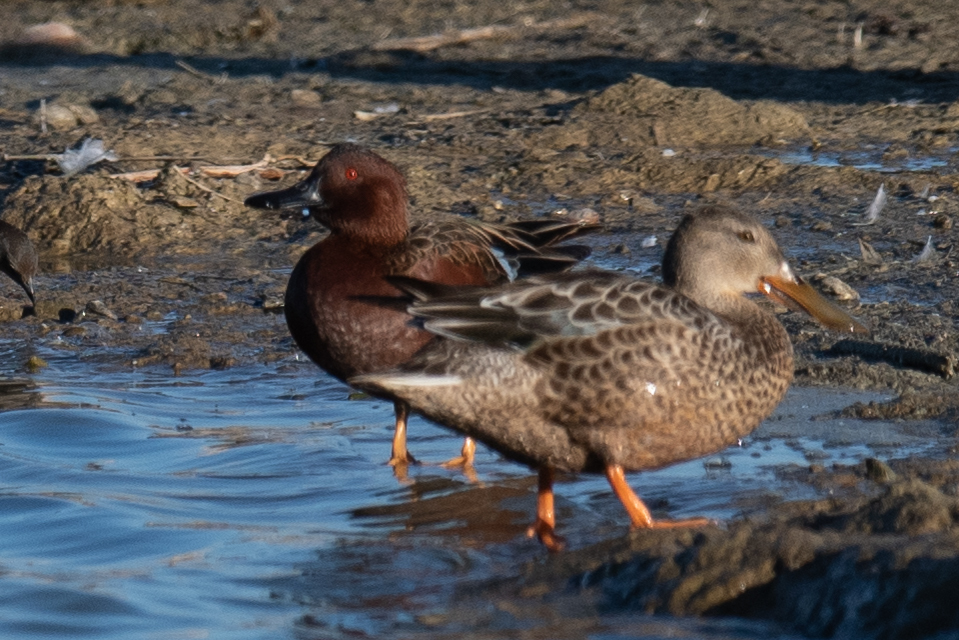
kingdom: Animalia
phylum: Chordata
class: Aves
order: Anseriformes
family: Anatidae
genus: Spatula
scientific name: Spatula cyanoptera
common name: Cinnamon teal
